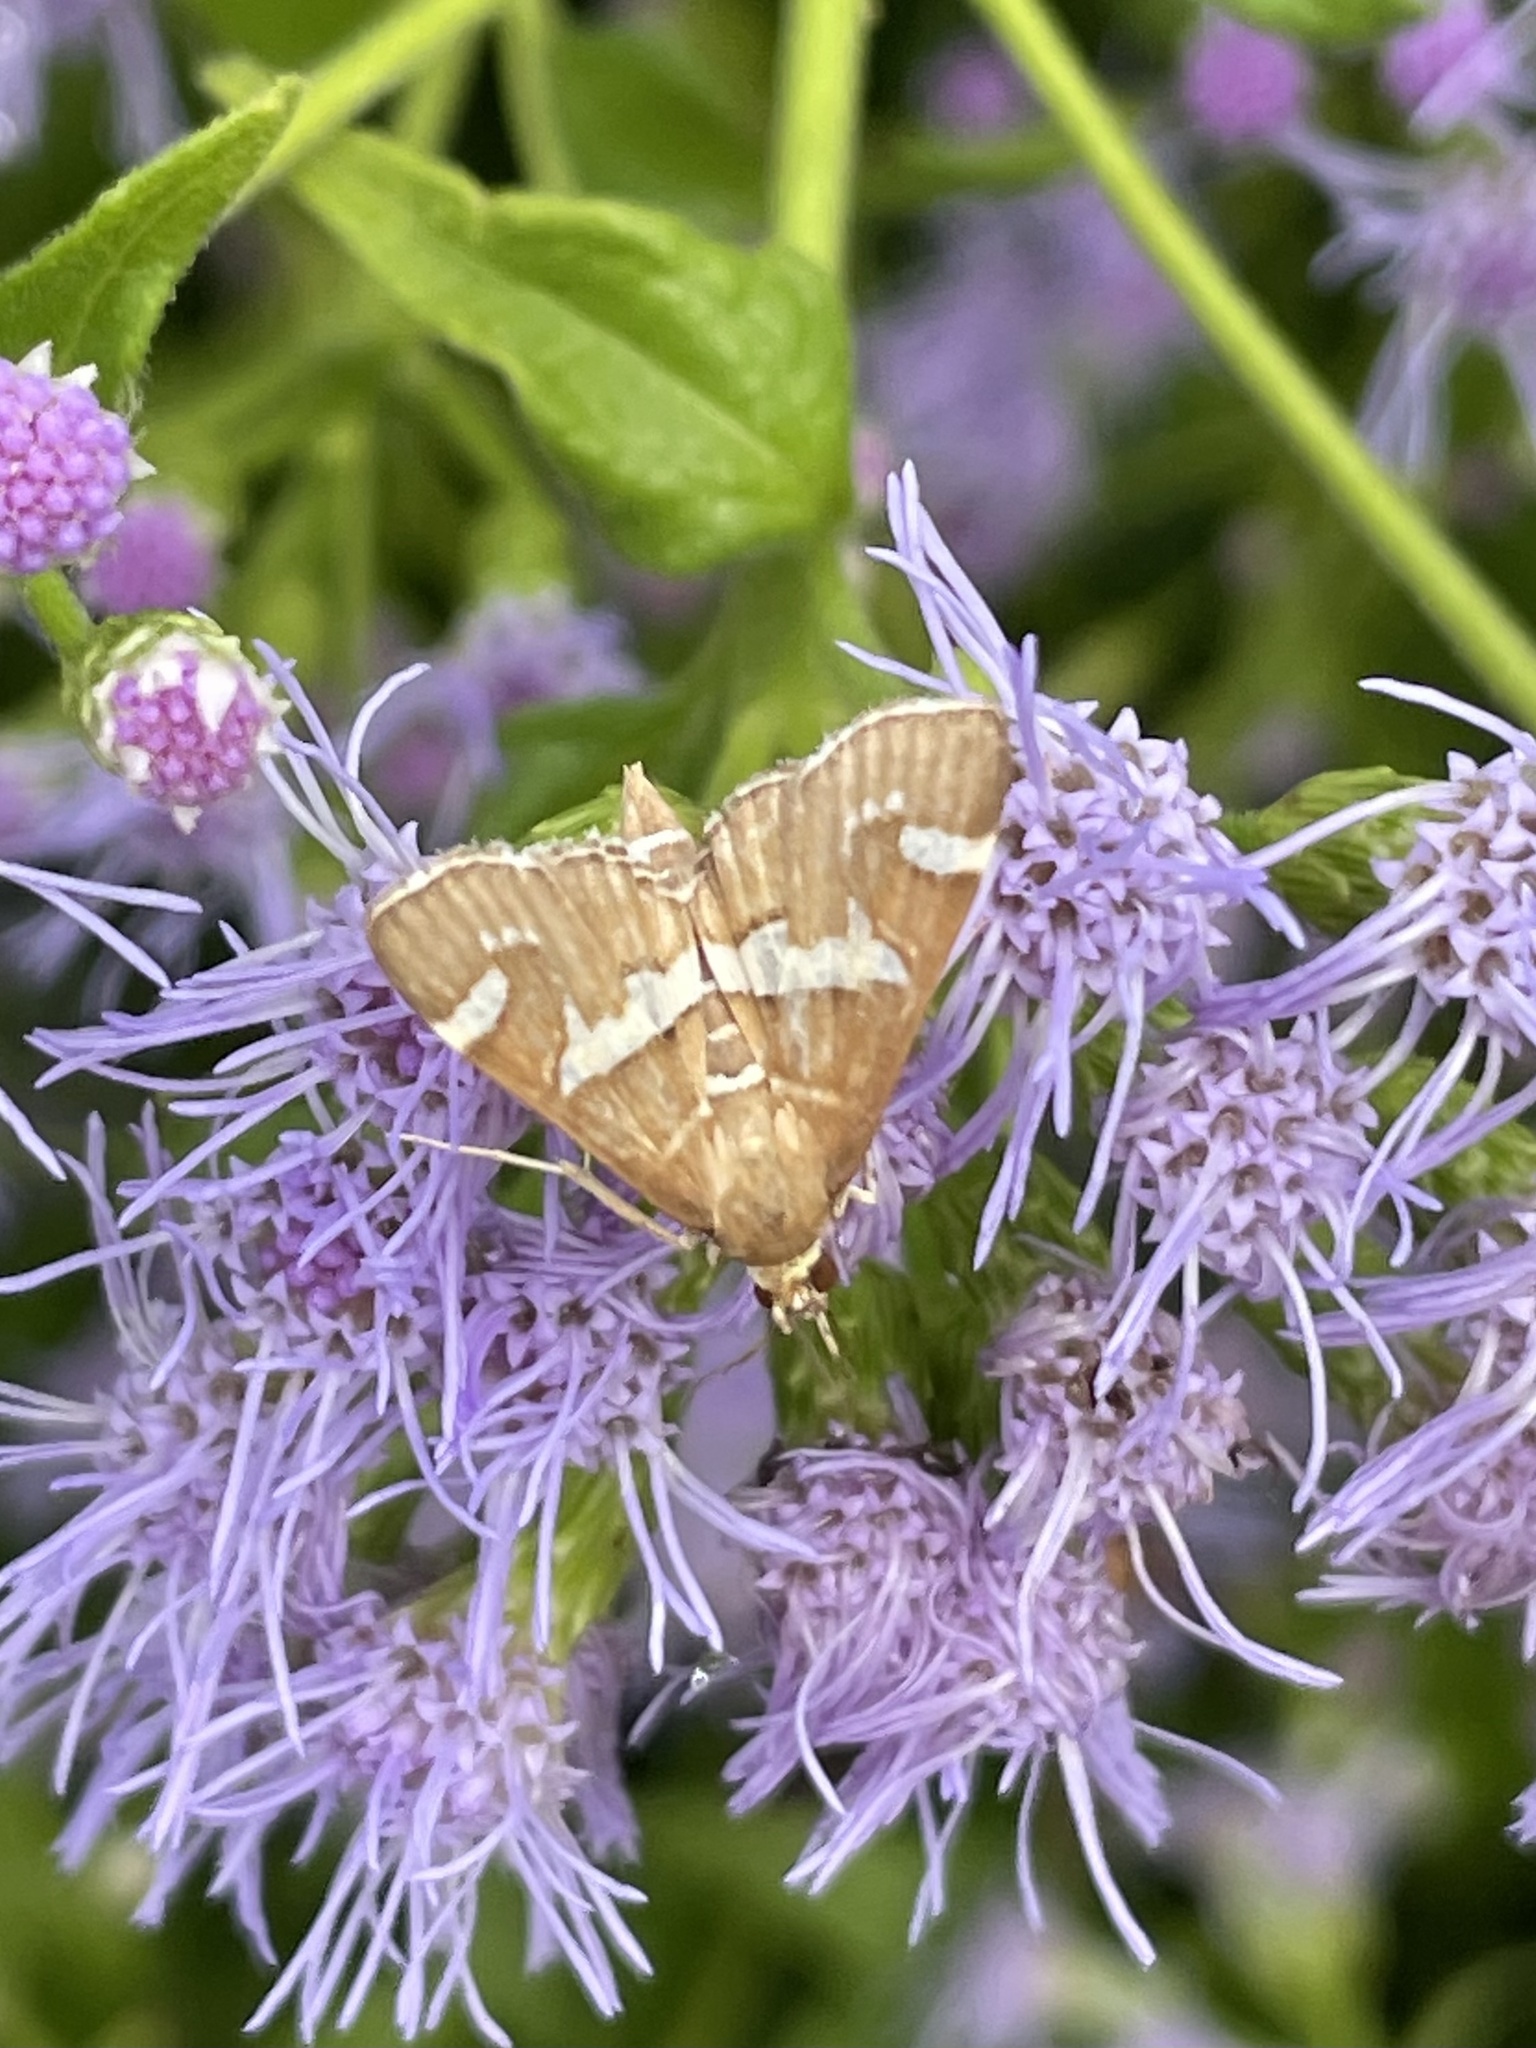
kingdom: Animalia
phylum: Arthropoda
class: Insecta
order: Lepidoptera
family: Crambidae
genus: Spoladea
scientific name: Spoladea recurvalis
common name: Beet webworm moth
